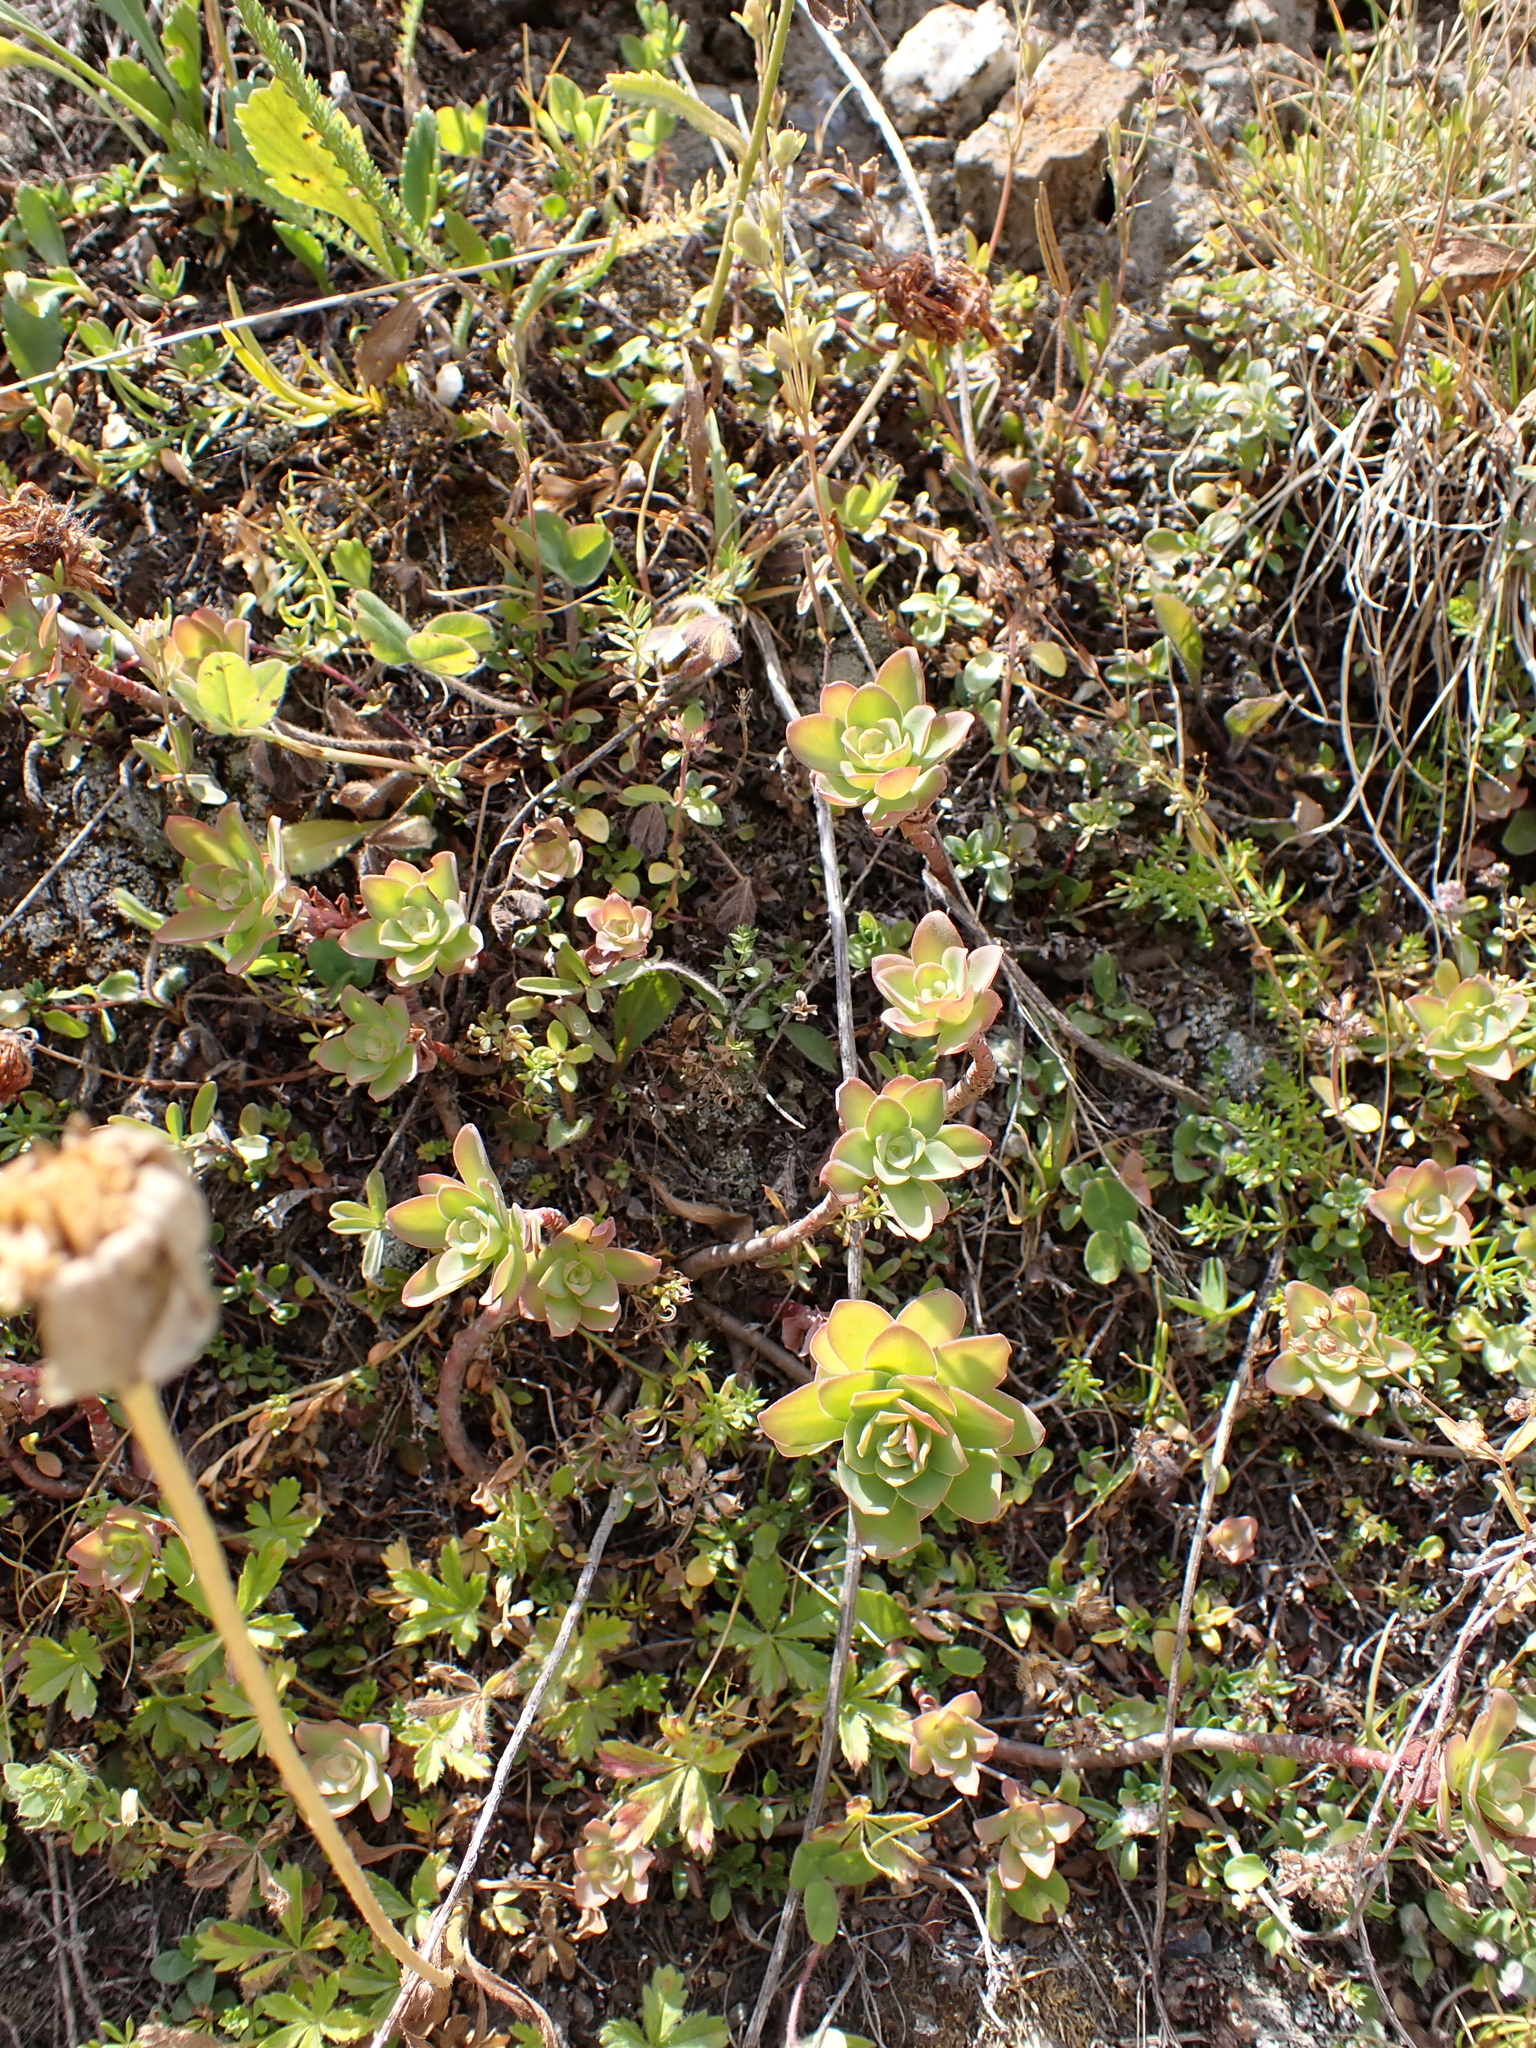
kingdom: Plantae
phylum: Tracheophyta
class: Magnoliopsida
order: Saxifragales
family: Crassulaceae
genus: Hylotelephium
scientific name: Hylotelephium anacampseros
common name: Love-restorer
